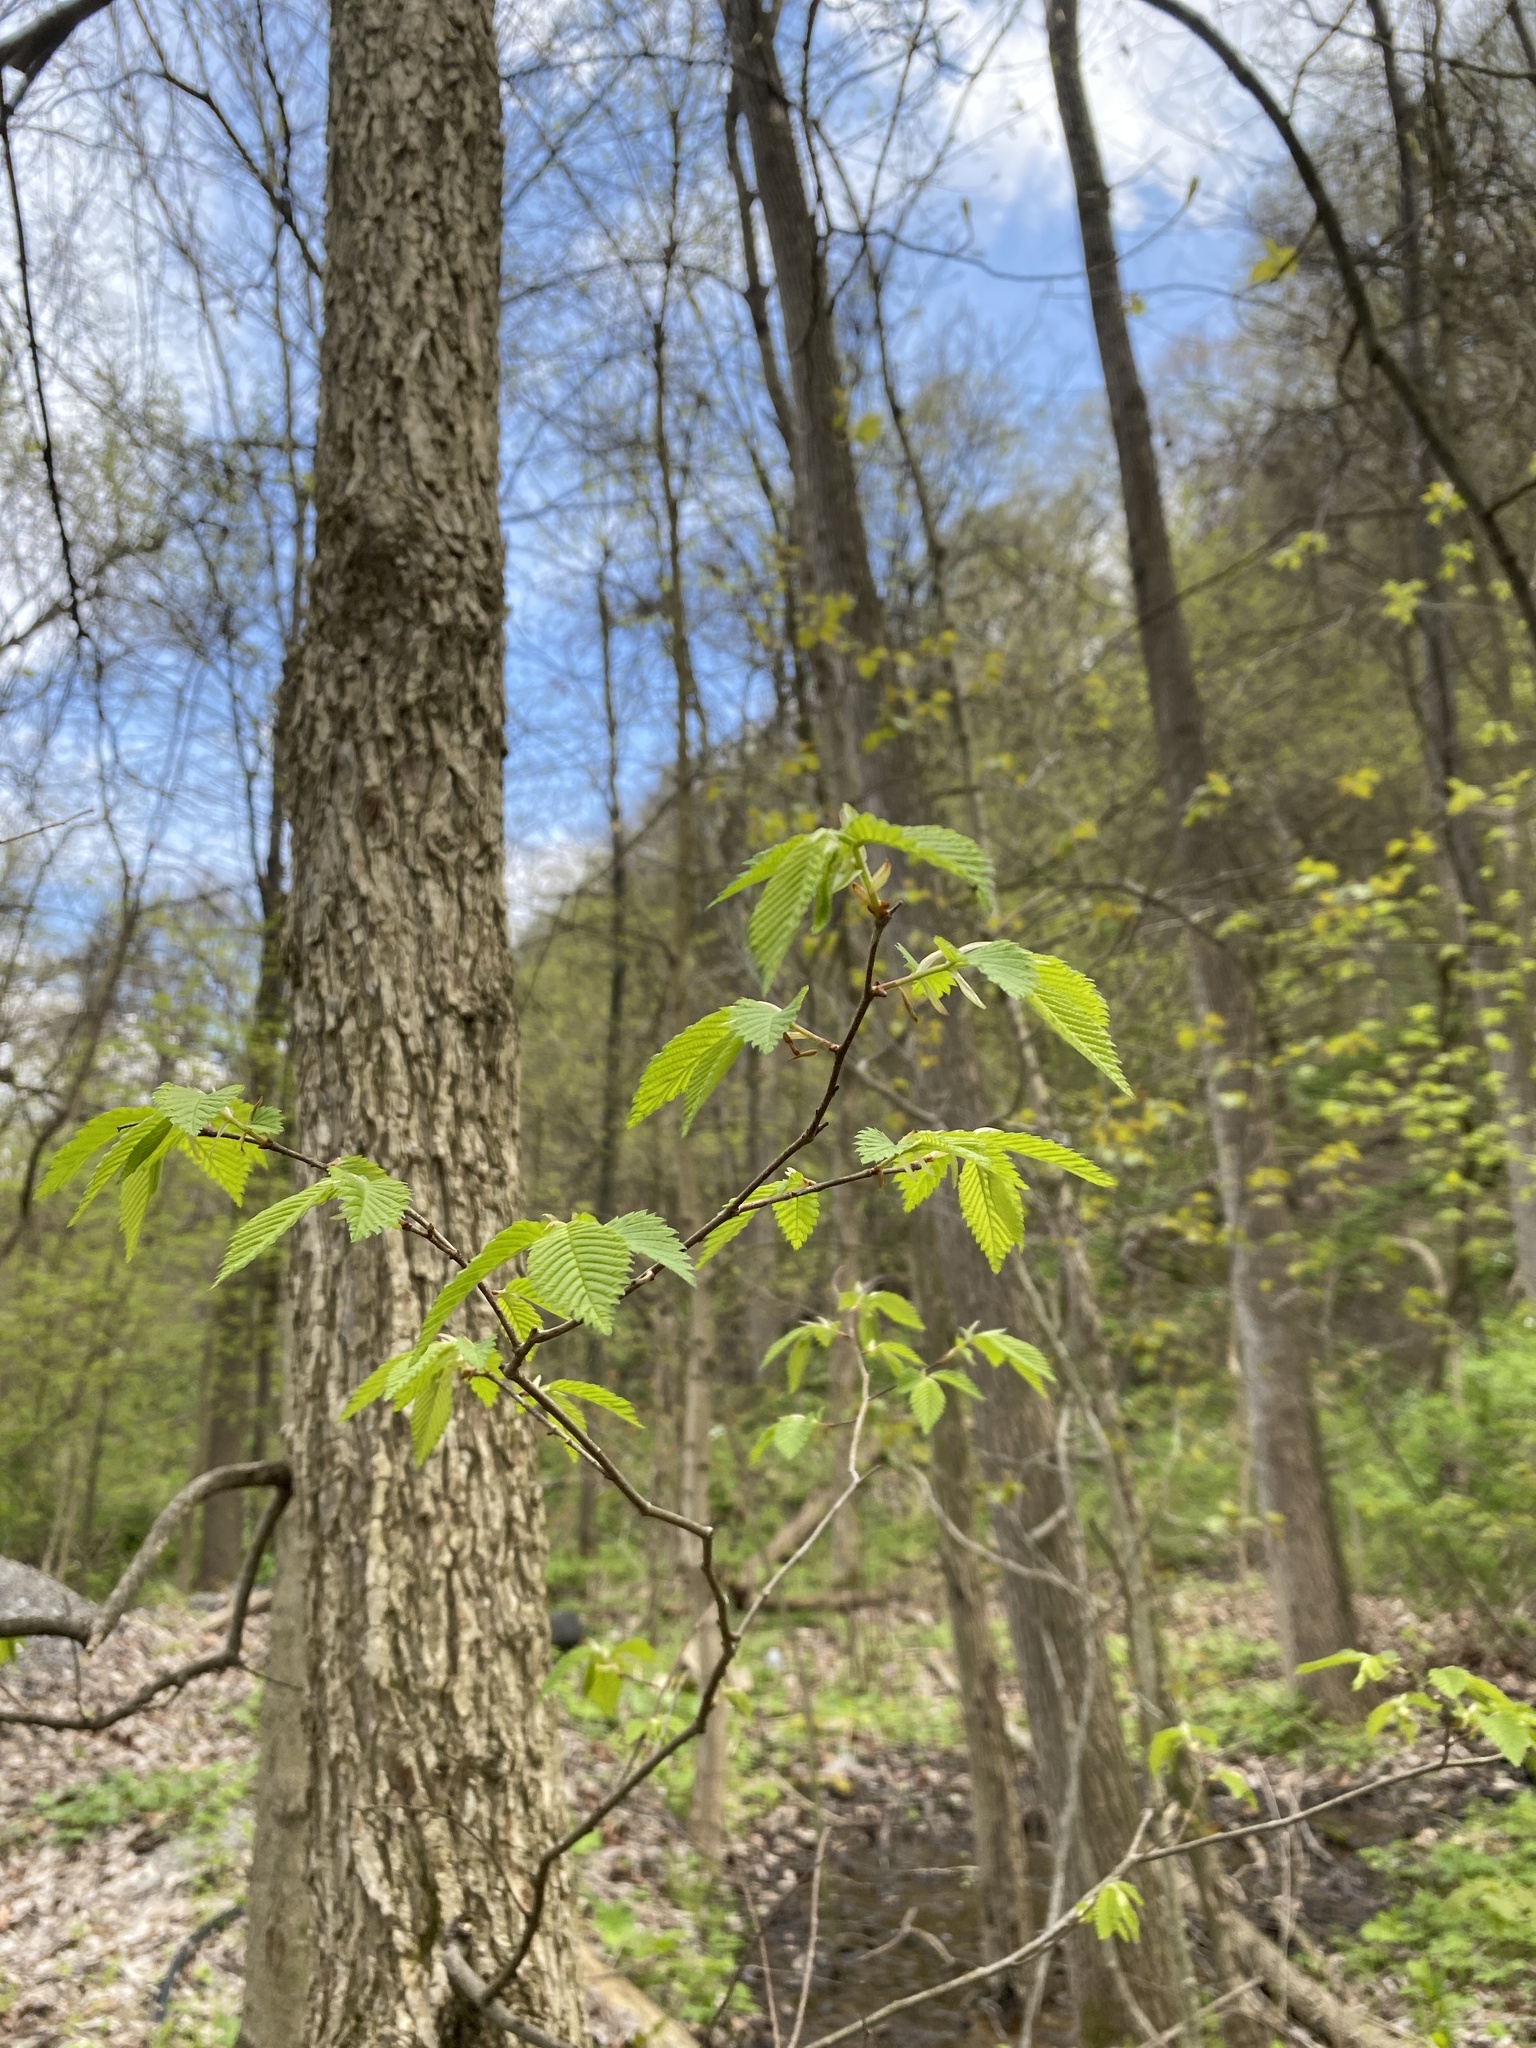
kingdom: Plantae
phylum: Tracheophyta
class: Magnoliopsida
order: Rosales
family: Ulmaceae
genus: Ulmus
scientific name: Ulmus americana
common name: American elm
